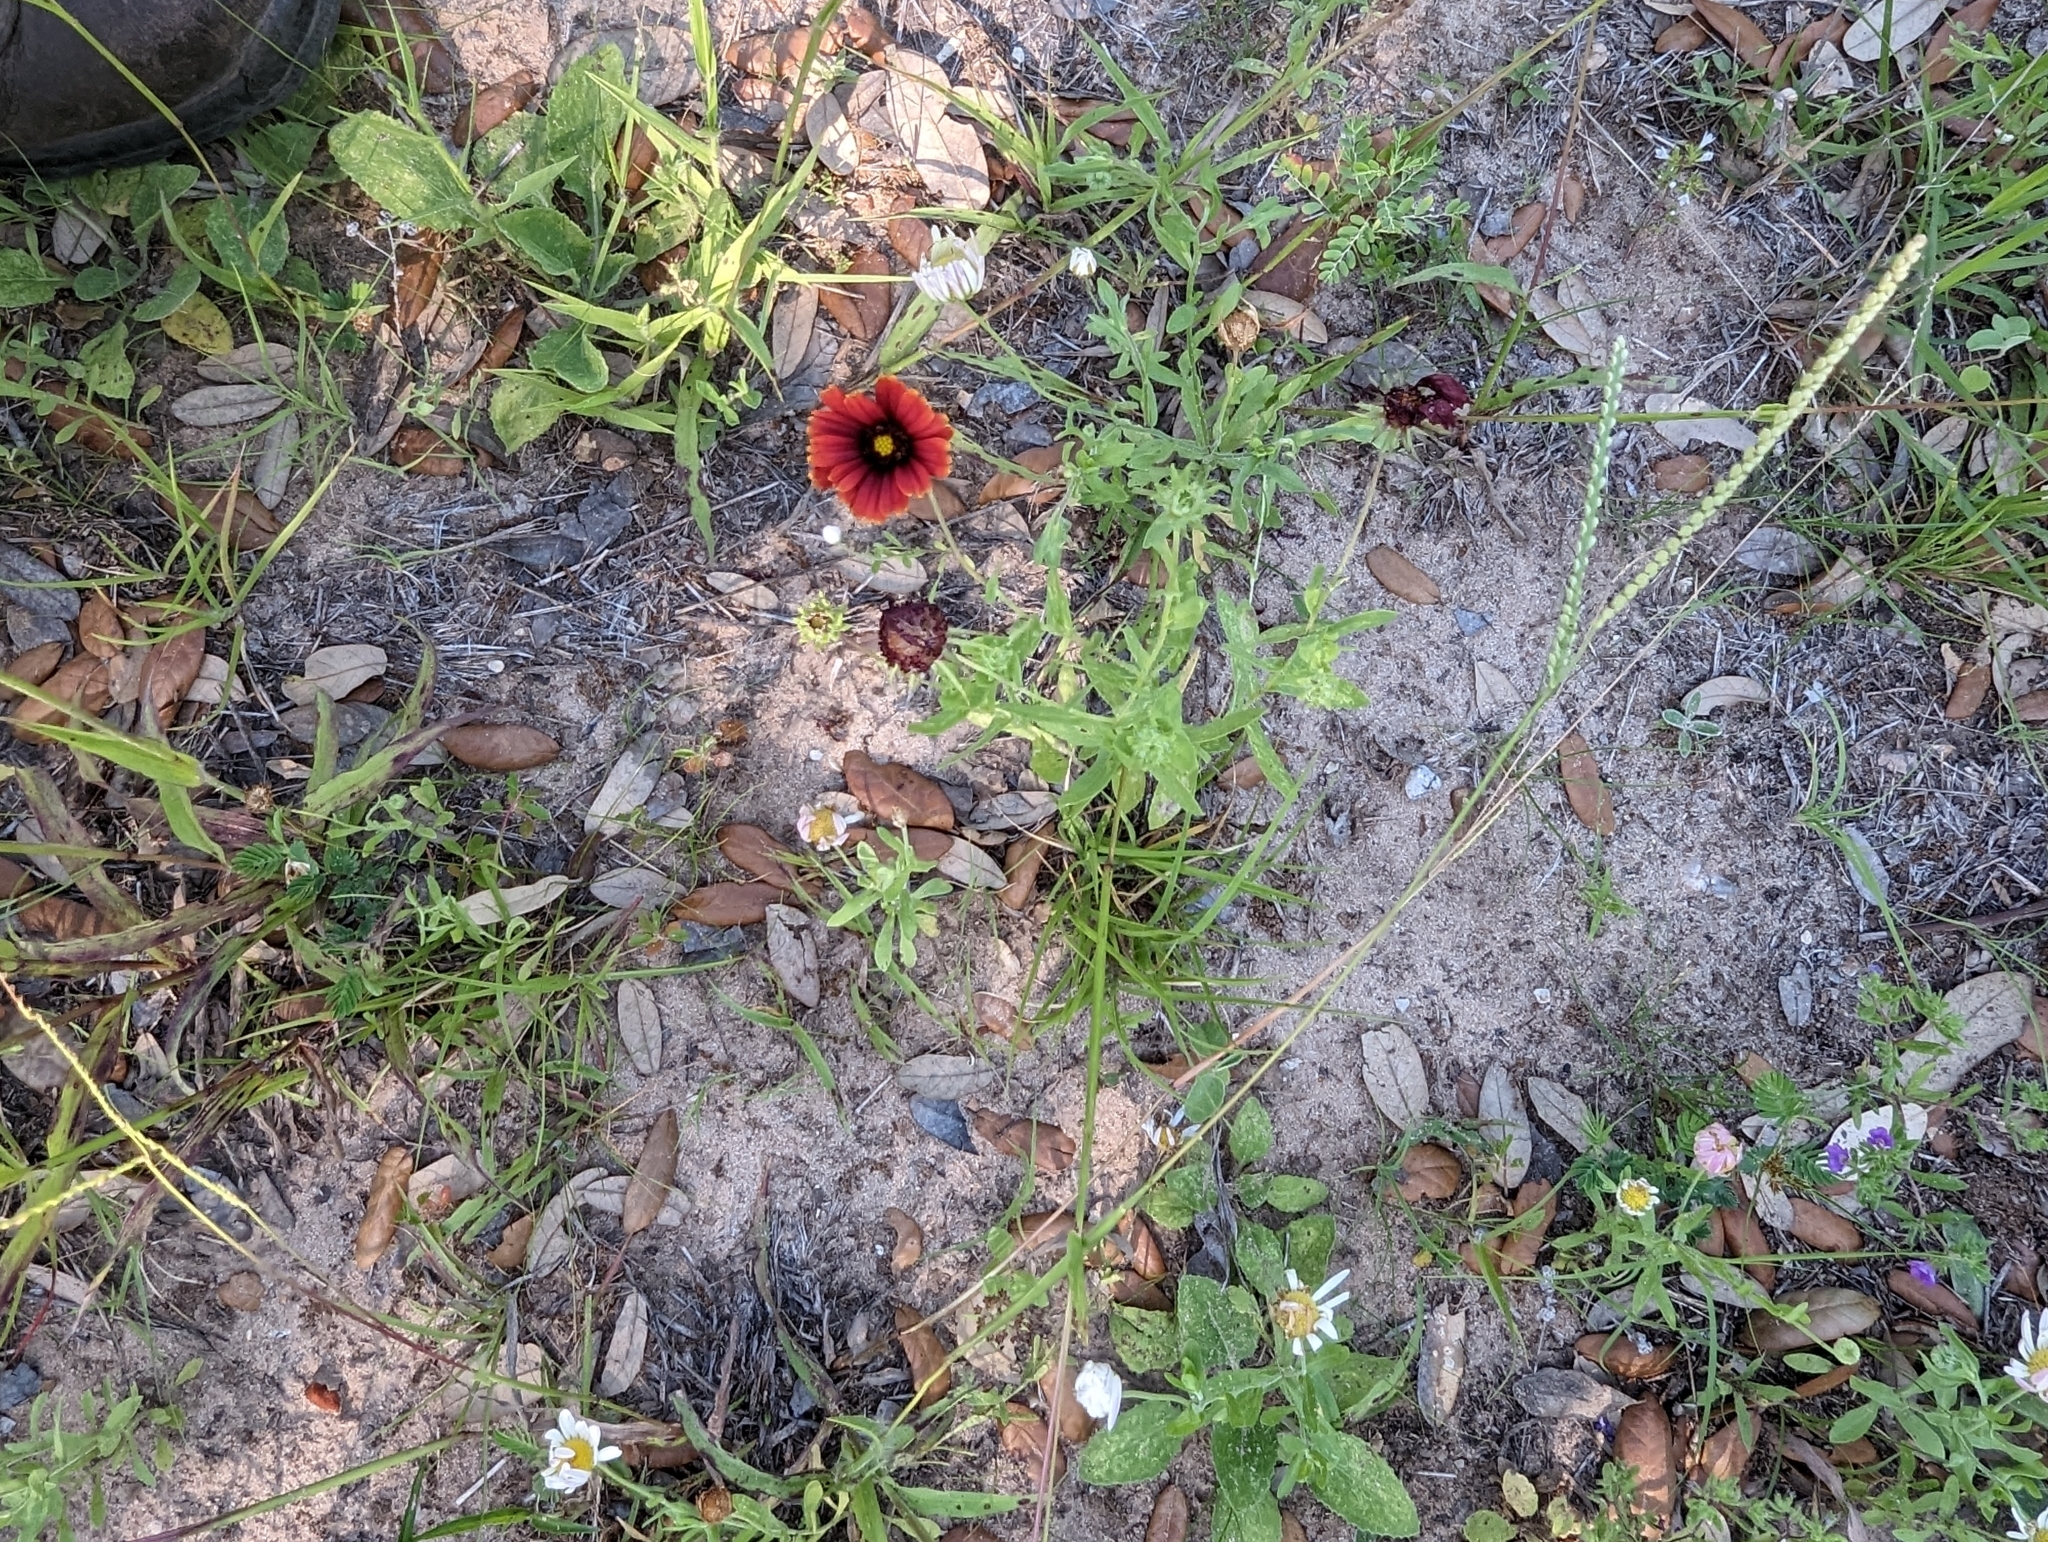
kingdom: Plantae
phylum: Tracheophyta
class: Magnoliopsida
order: Asterales
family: Asteraceae
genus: Gaillardia
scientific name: Gaillardia amblyodon
